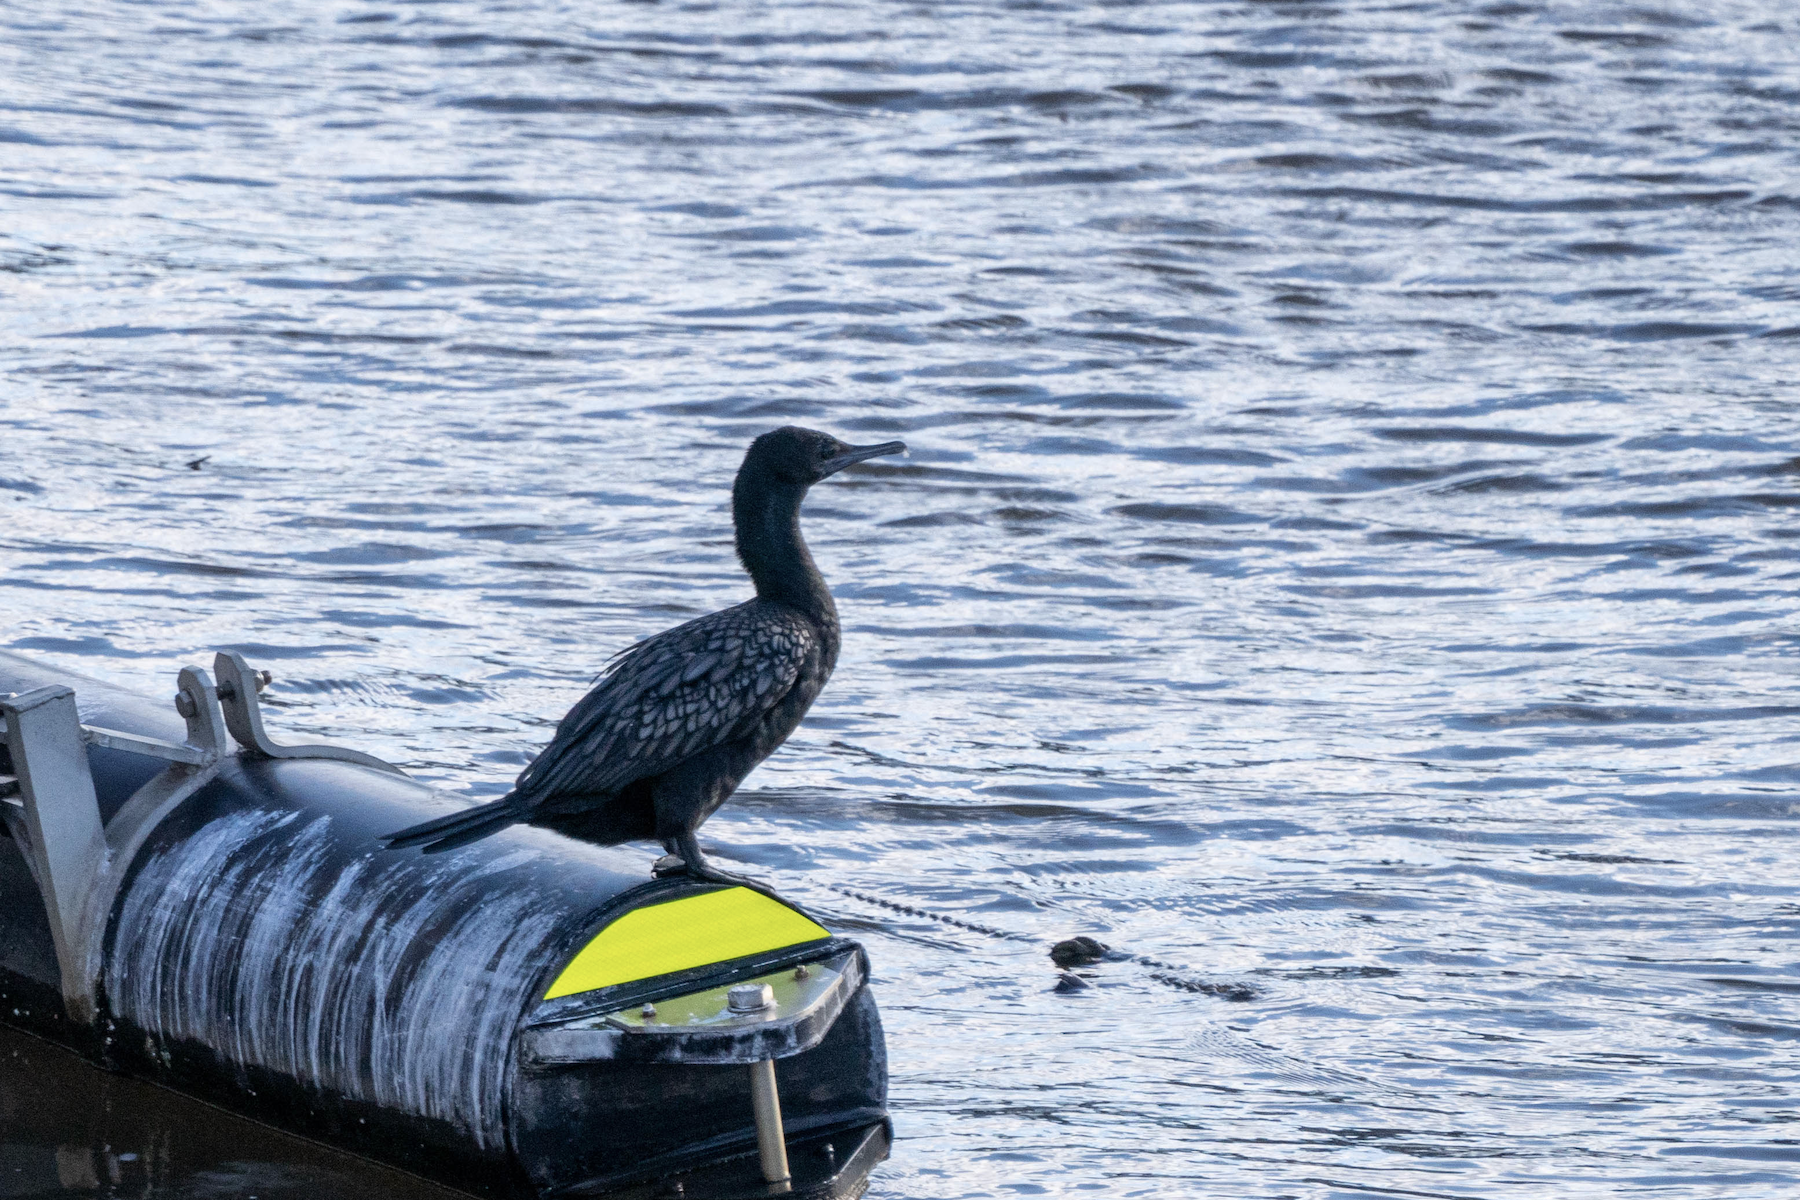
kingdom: Animalia
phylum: Chordata
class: Aves
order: Suliformes
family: Phalacrocoracidae
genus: Phalacrocorax
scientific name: Phalacrocorax sulcirostris
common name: Little black cormorant
